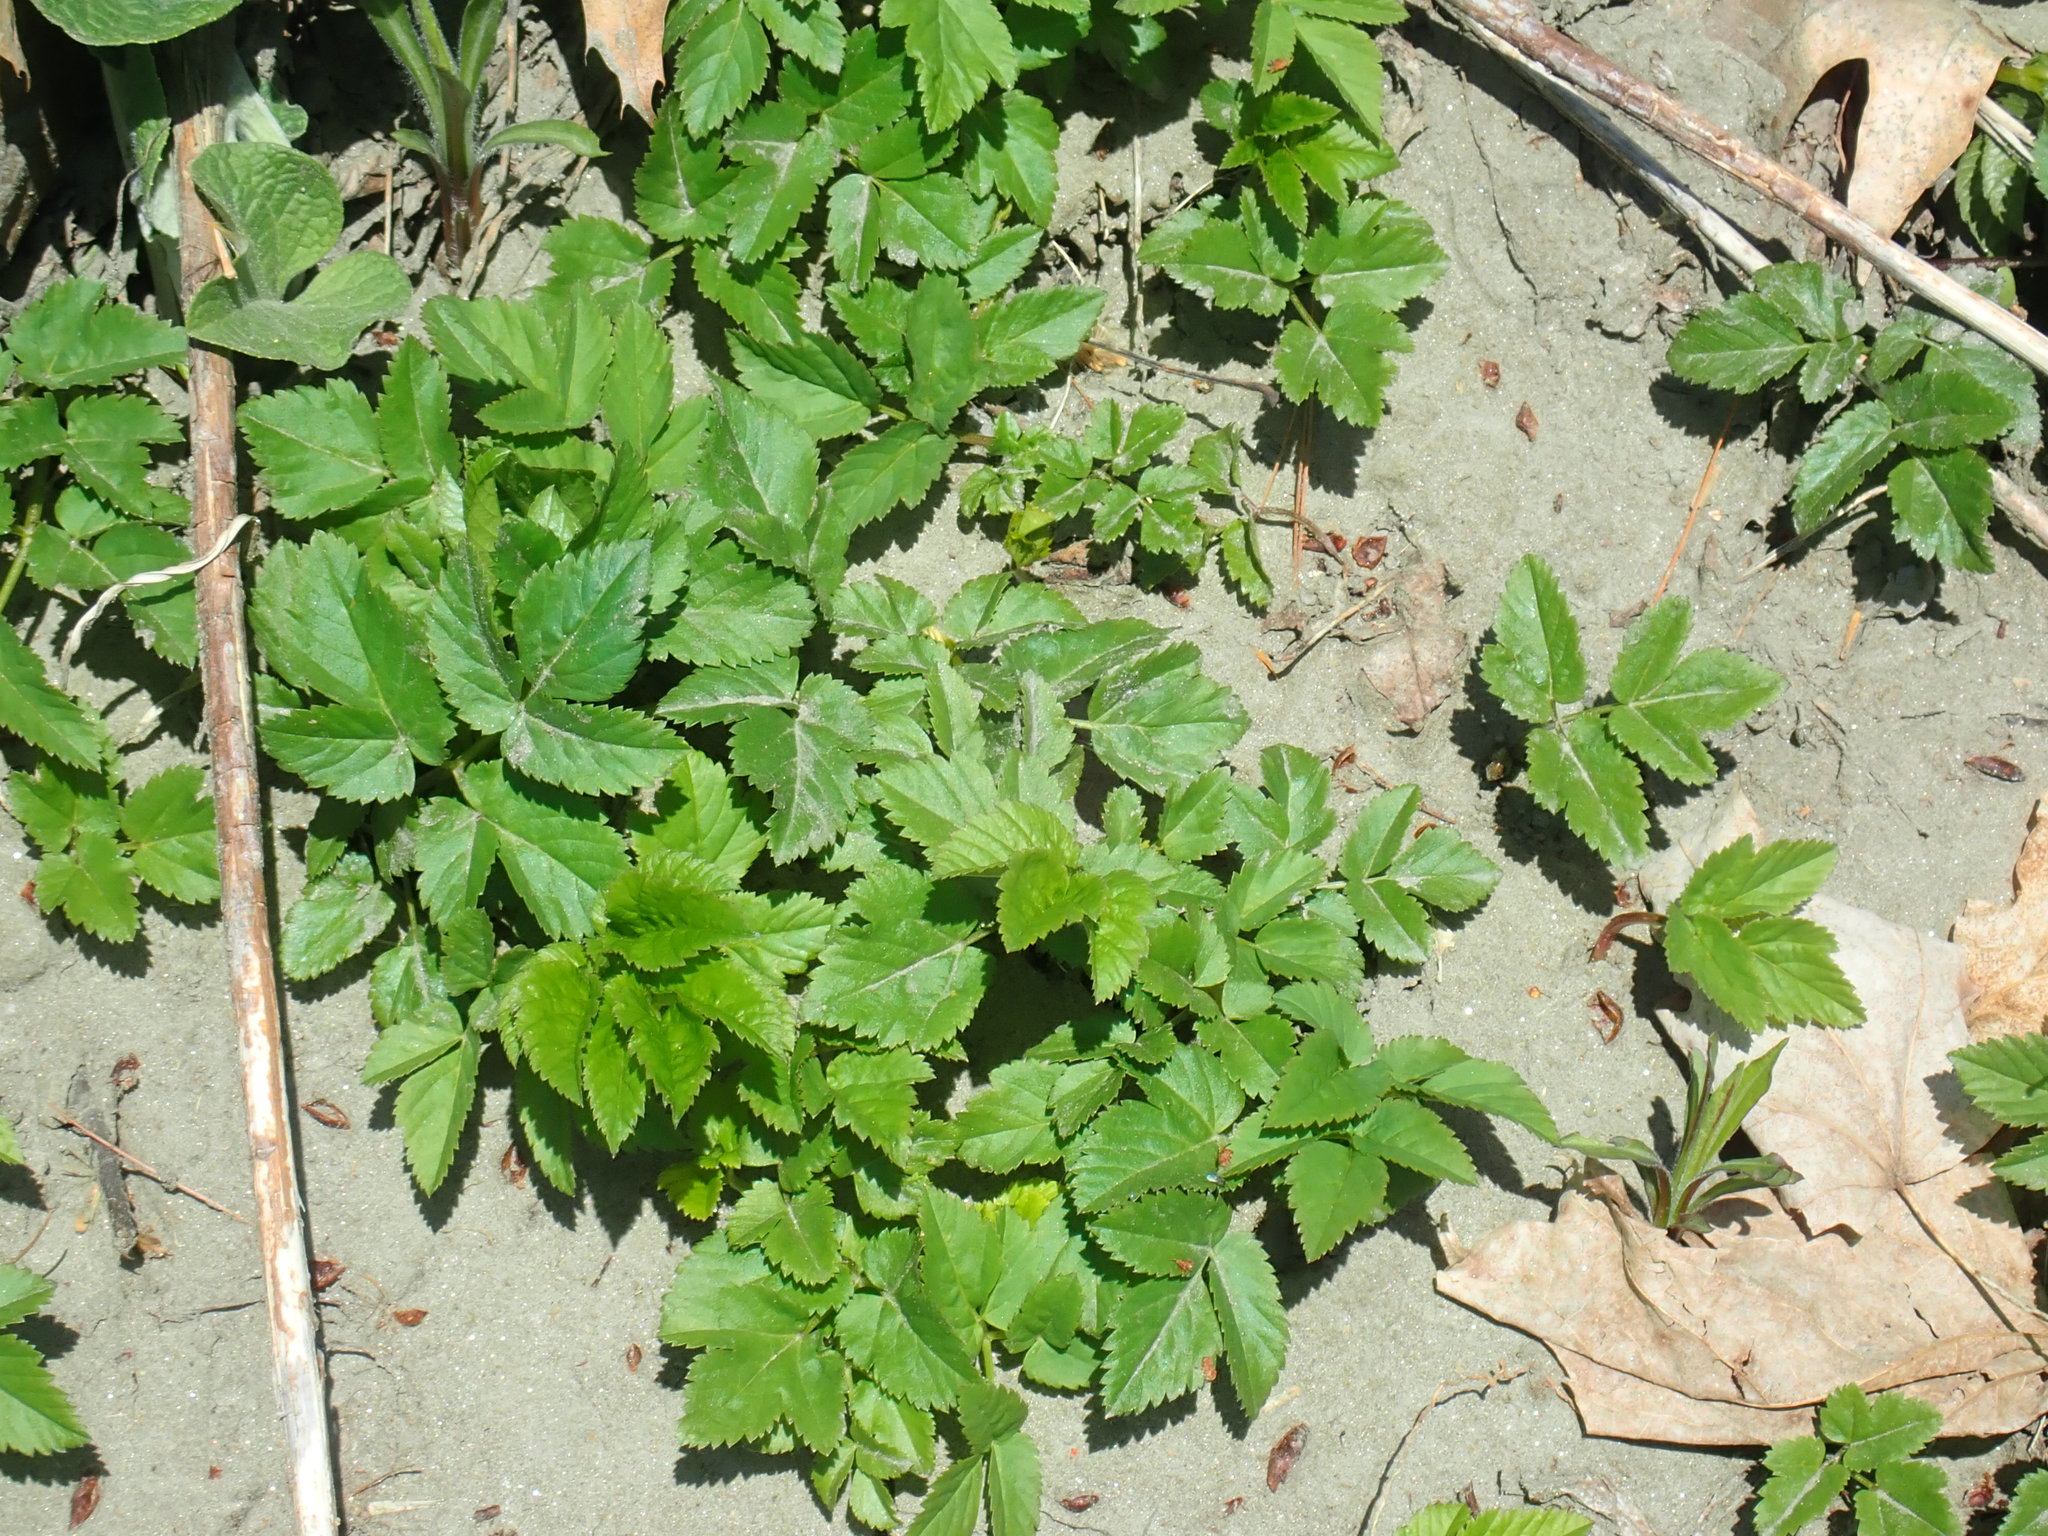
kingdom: Plantae
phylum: Tracheophyta
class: Magnoliopsida
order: Apiales
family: Apiaceae
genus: Aegopodium
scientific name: Aegopodium podagraria
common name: Ground-elder
